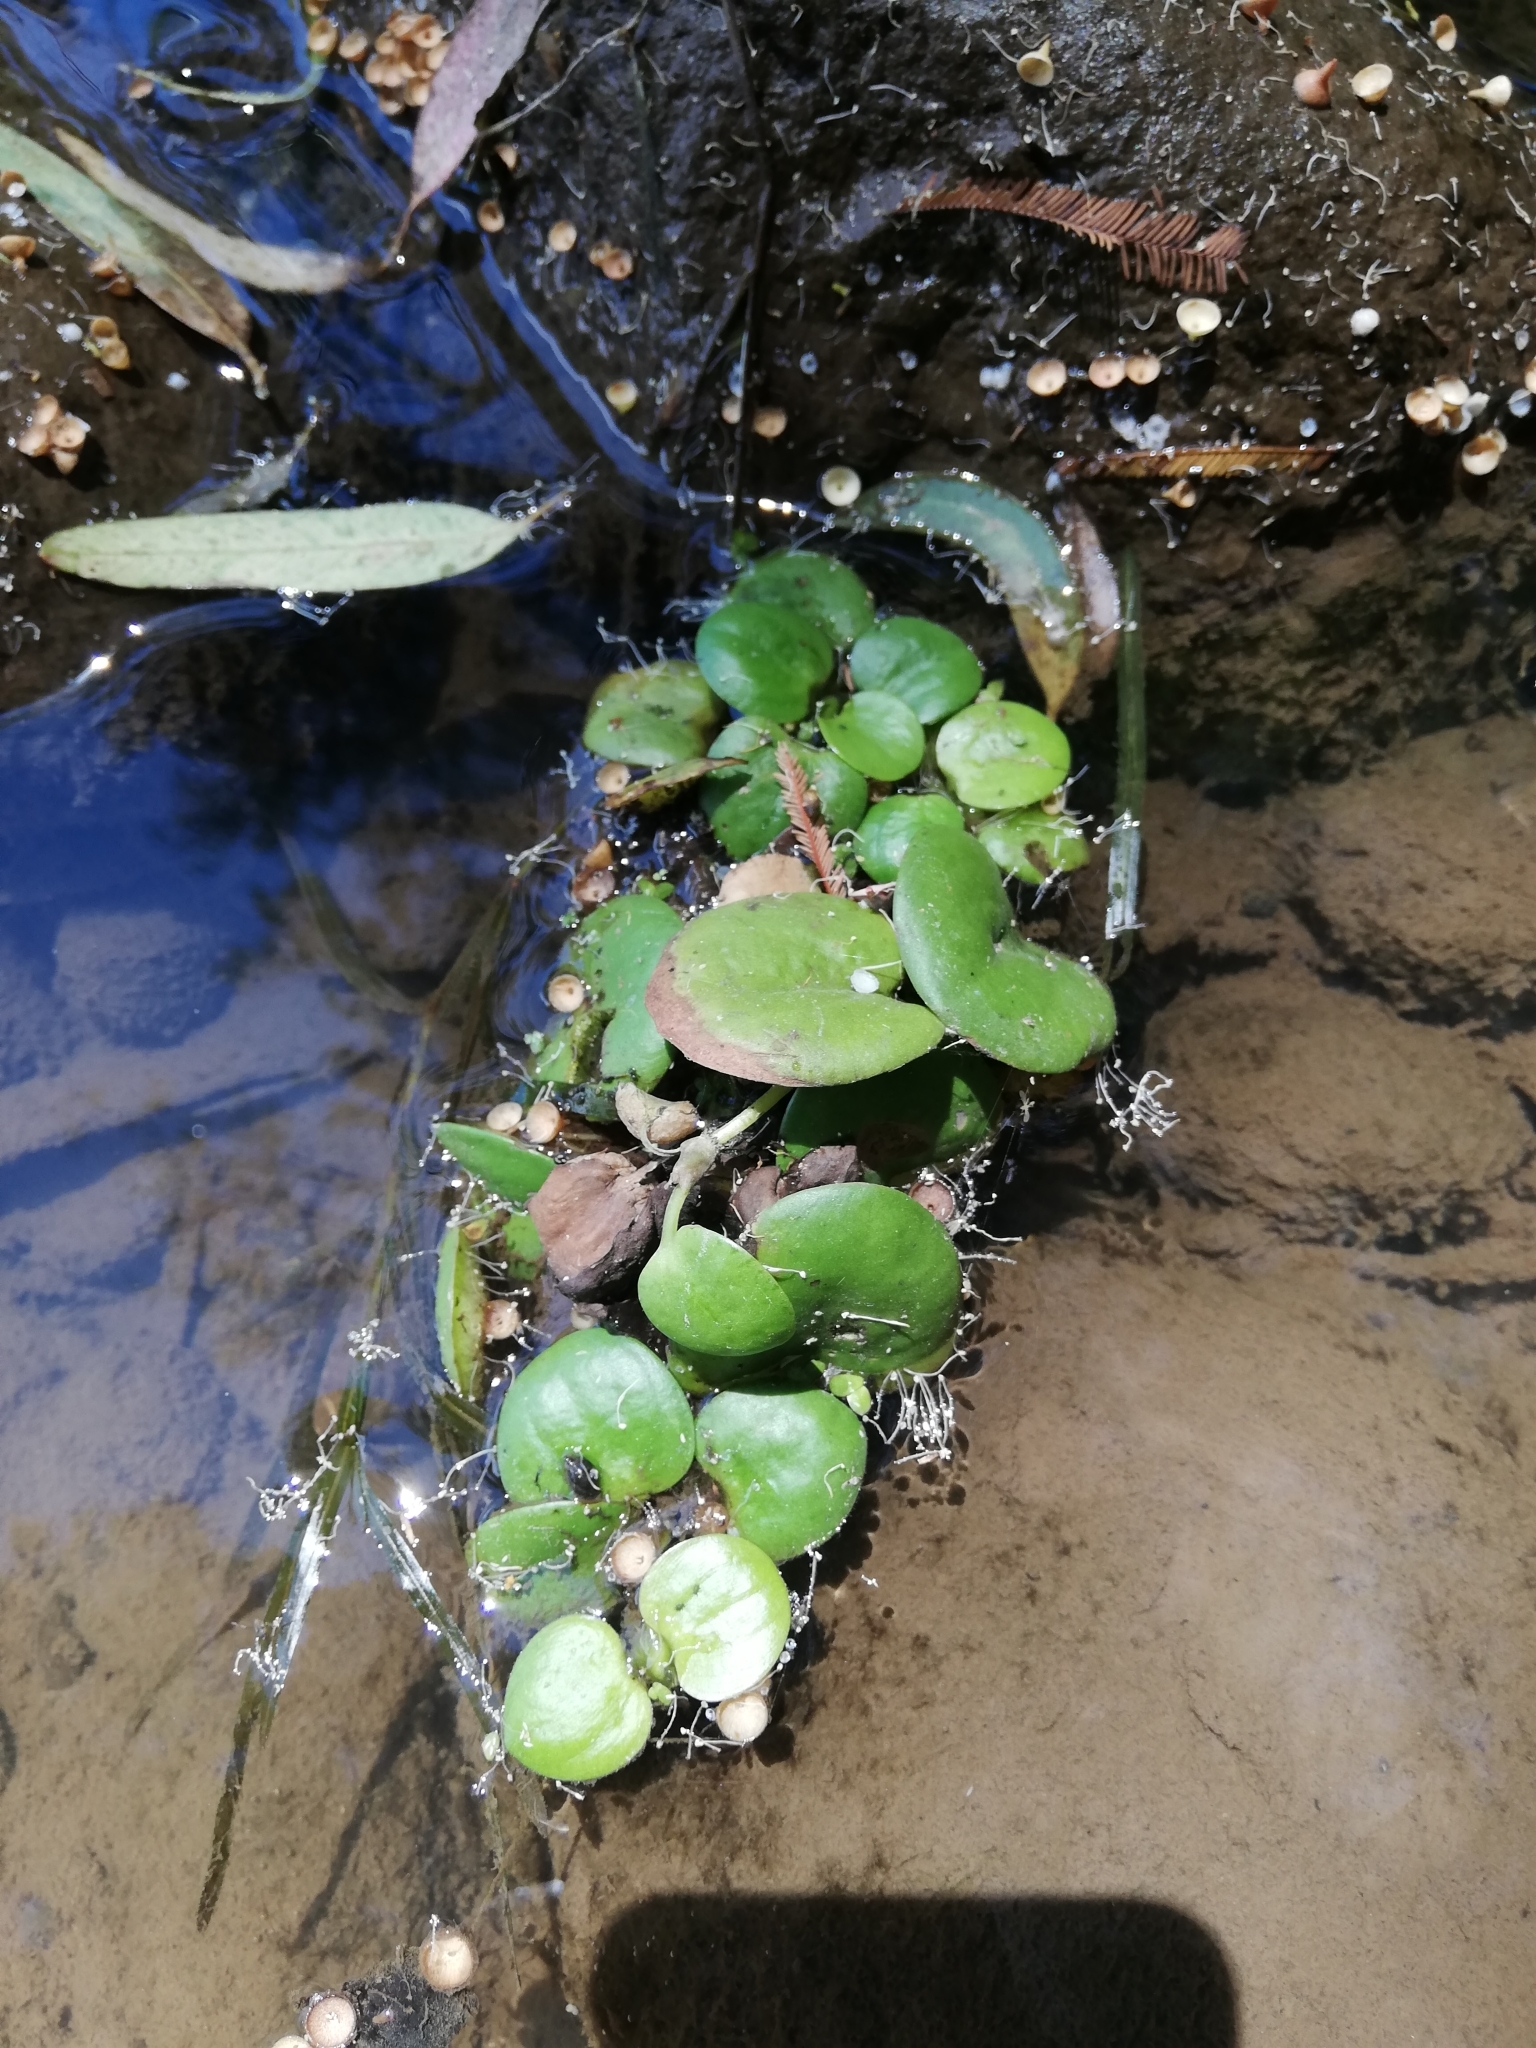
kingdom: Plantae
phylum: Tracheophyta
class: Liliopsida
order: Alismatales
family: Hydrocharitaceae
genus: Hydrocharis
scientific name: Hydrocharis laevigata
